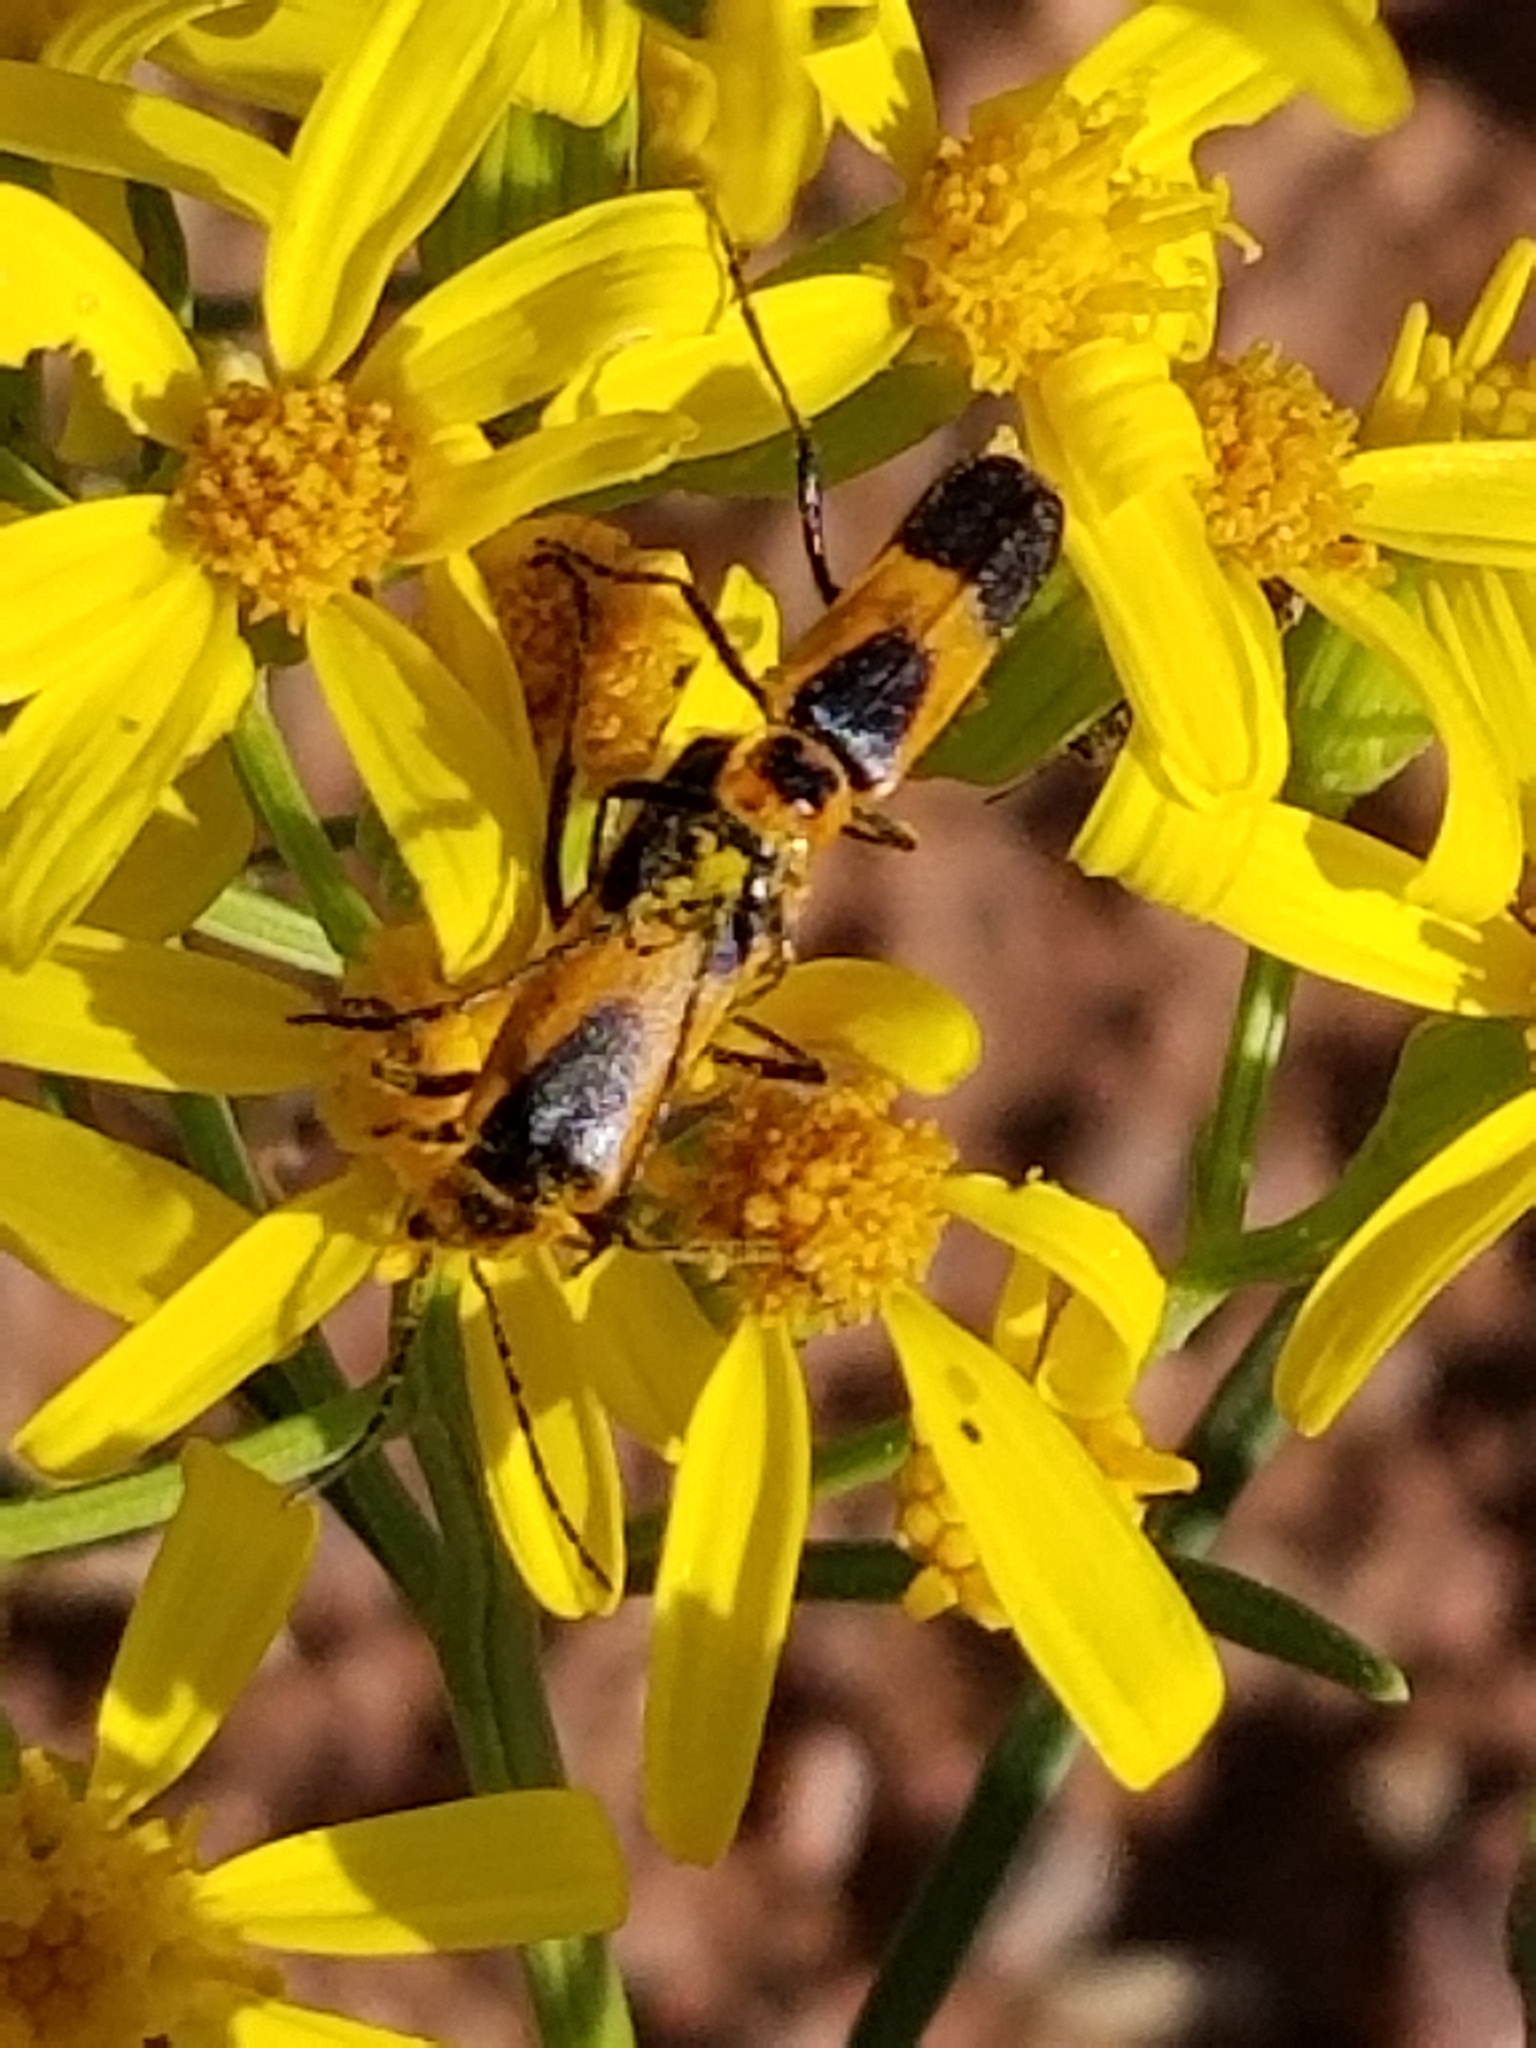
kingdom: Animalia
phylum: Arthropoda
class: Insecta
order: Coleoptera
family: Cantharidae
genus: Chauliognathus
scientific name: Chauliognathus basalis
